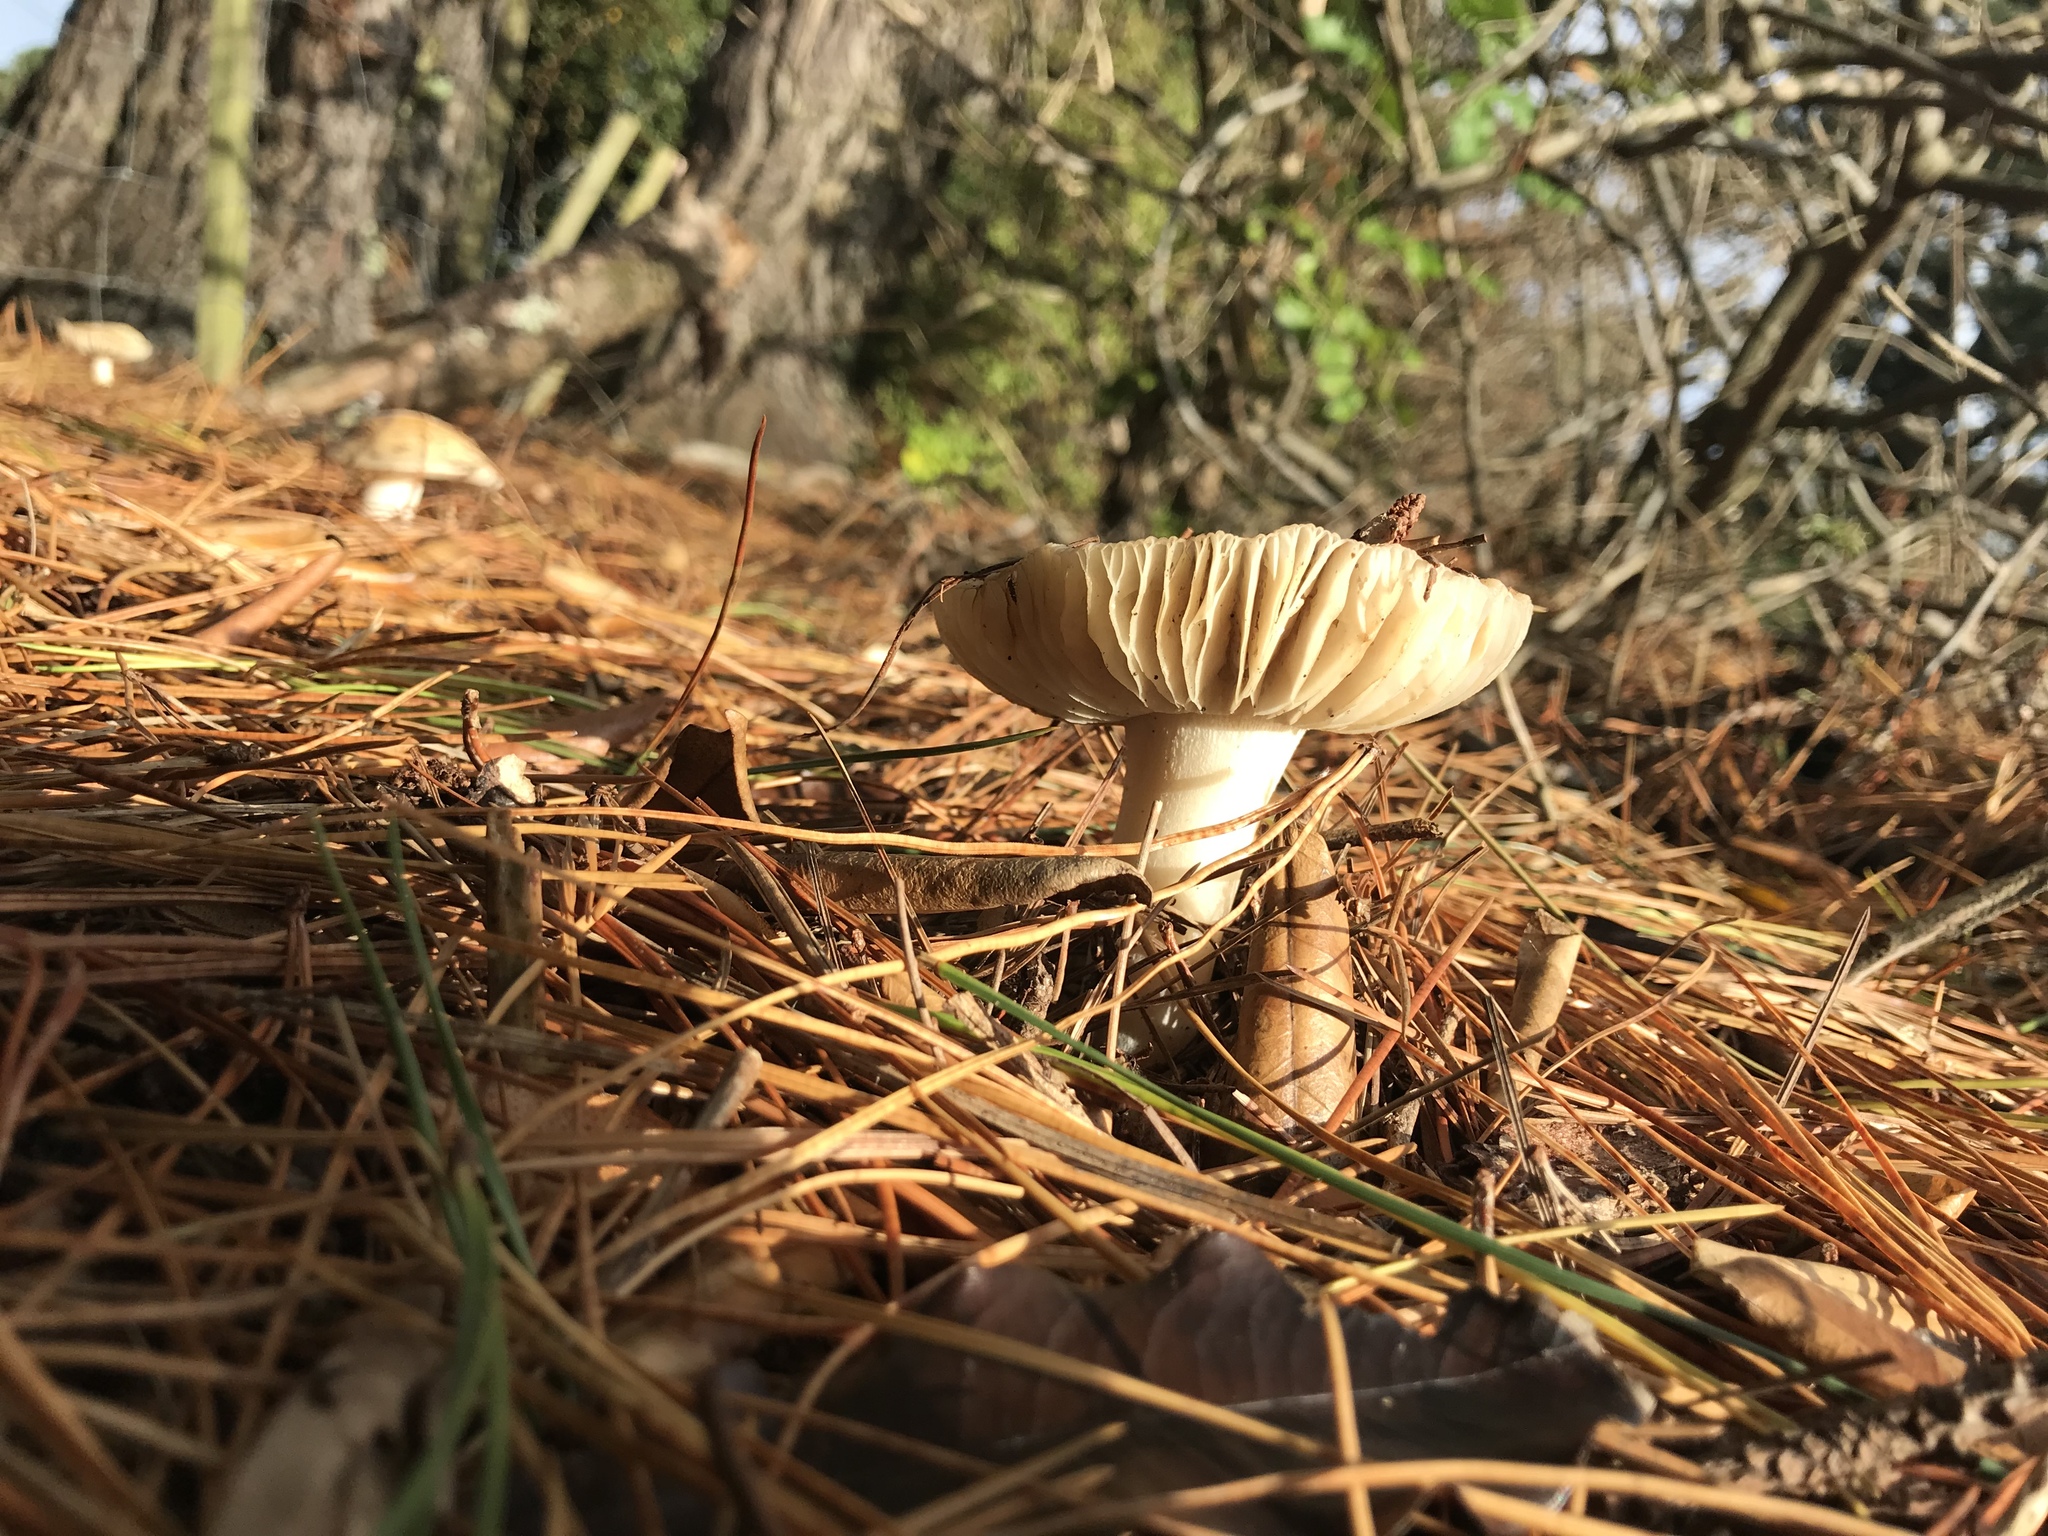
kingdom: Fungi
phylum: Basidiomycota
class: Agaricomycetes
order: Agaricales
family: Amanitaceae
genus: Amanita
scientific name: Amanita gemmata
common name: Jewelled amanita
